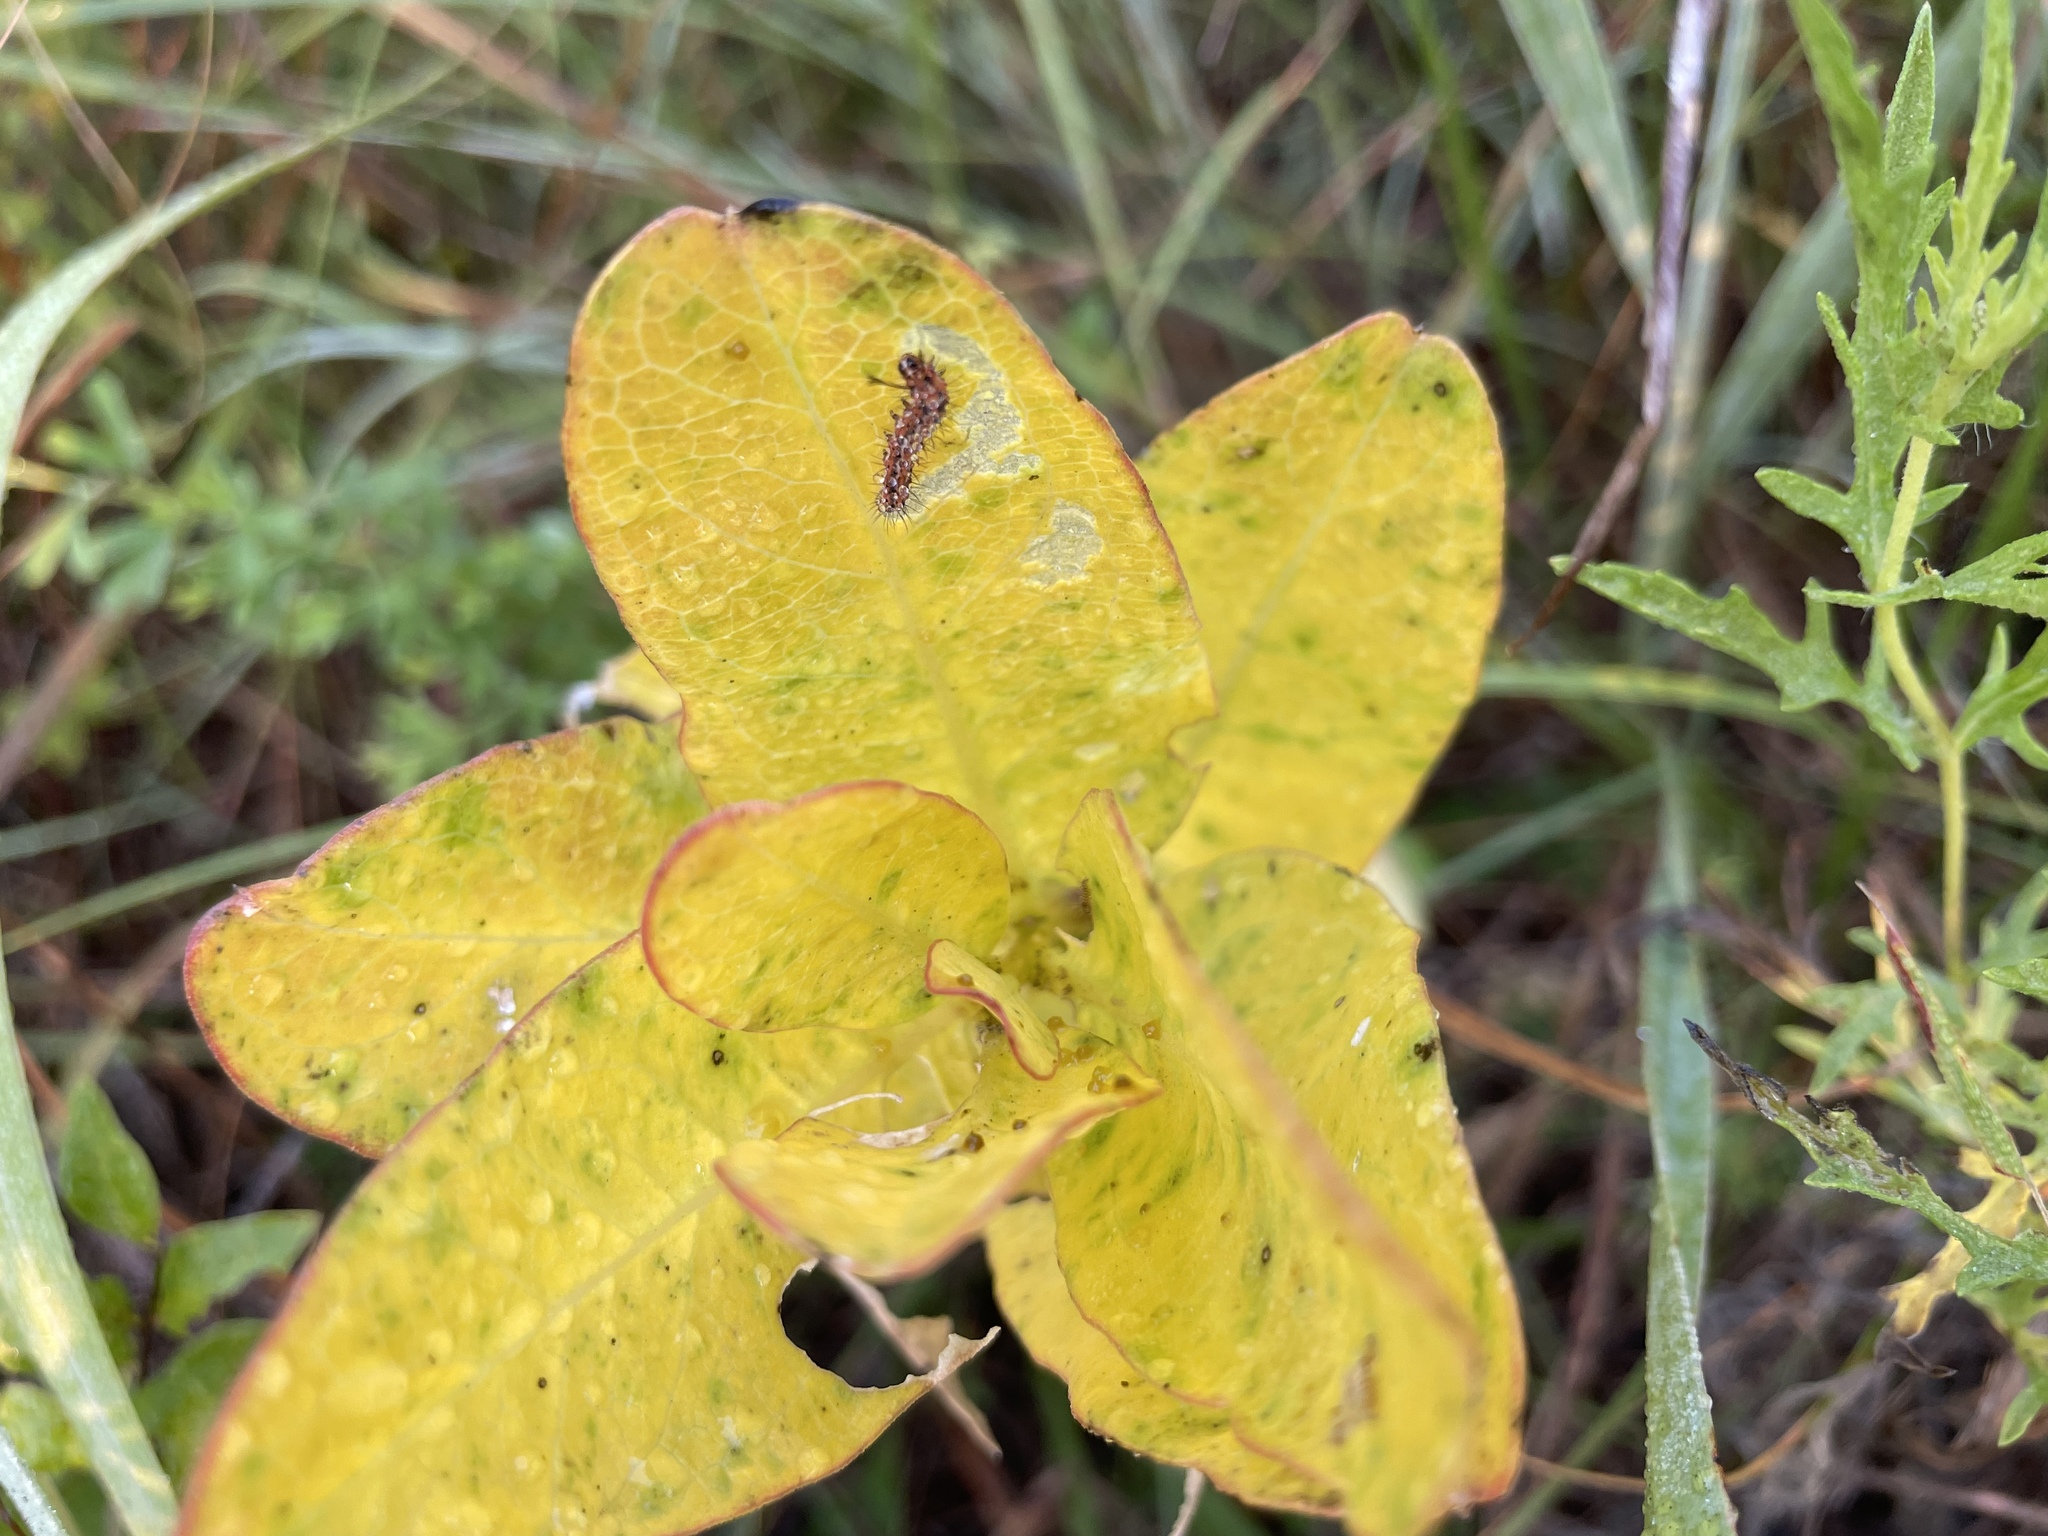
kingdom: Plantae
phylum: Tracheophyta
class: Magnoliopsida
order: Gentianales
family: Apocynaceae
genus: Asclepias
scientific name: Asclepias viridis
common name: Antelope-horns
